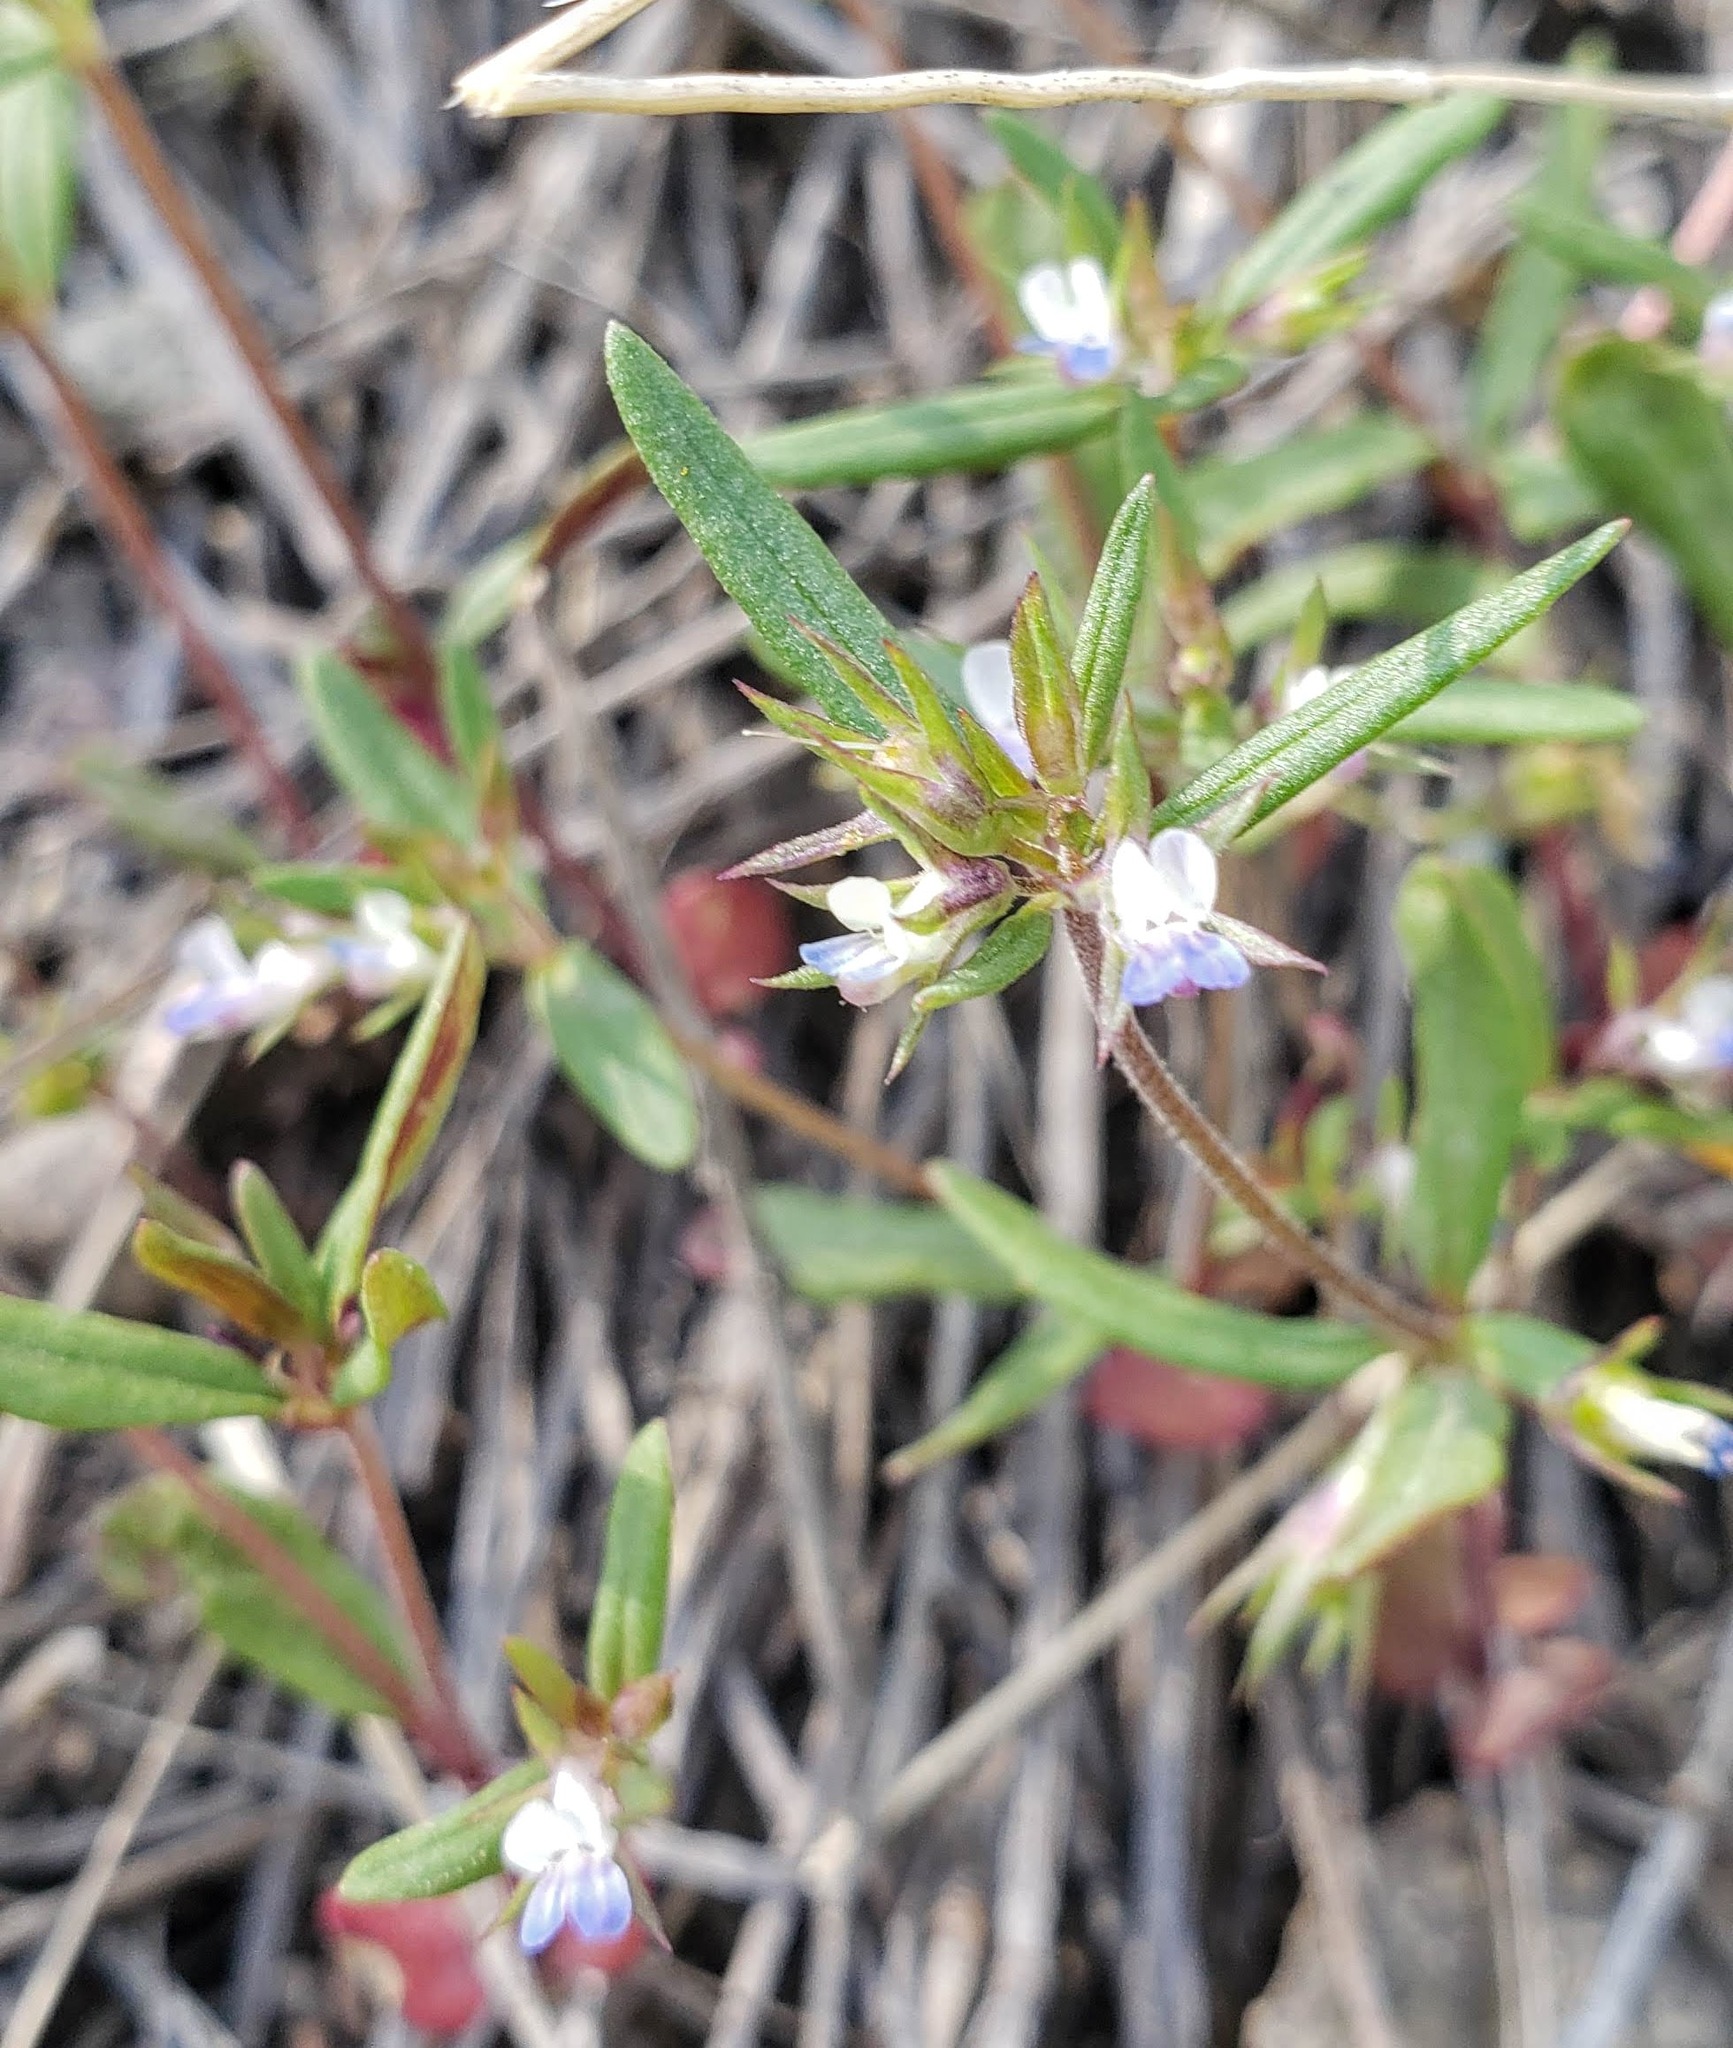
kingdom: Plantae
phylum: Tracheophyta
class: Magnoliopsida
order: Lamiales
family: Plantaginaceae
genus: Collinsia
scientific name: Collinsia parviflora
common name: Blue-lips
